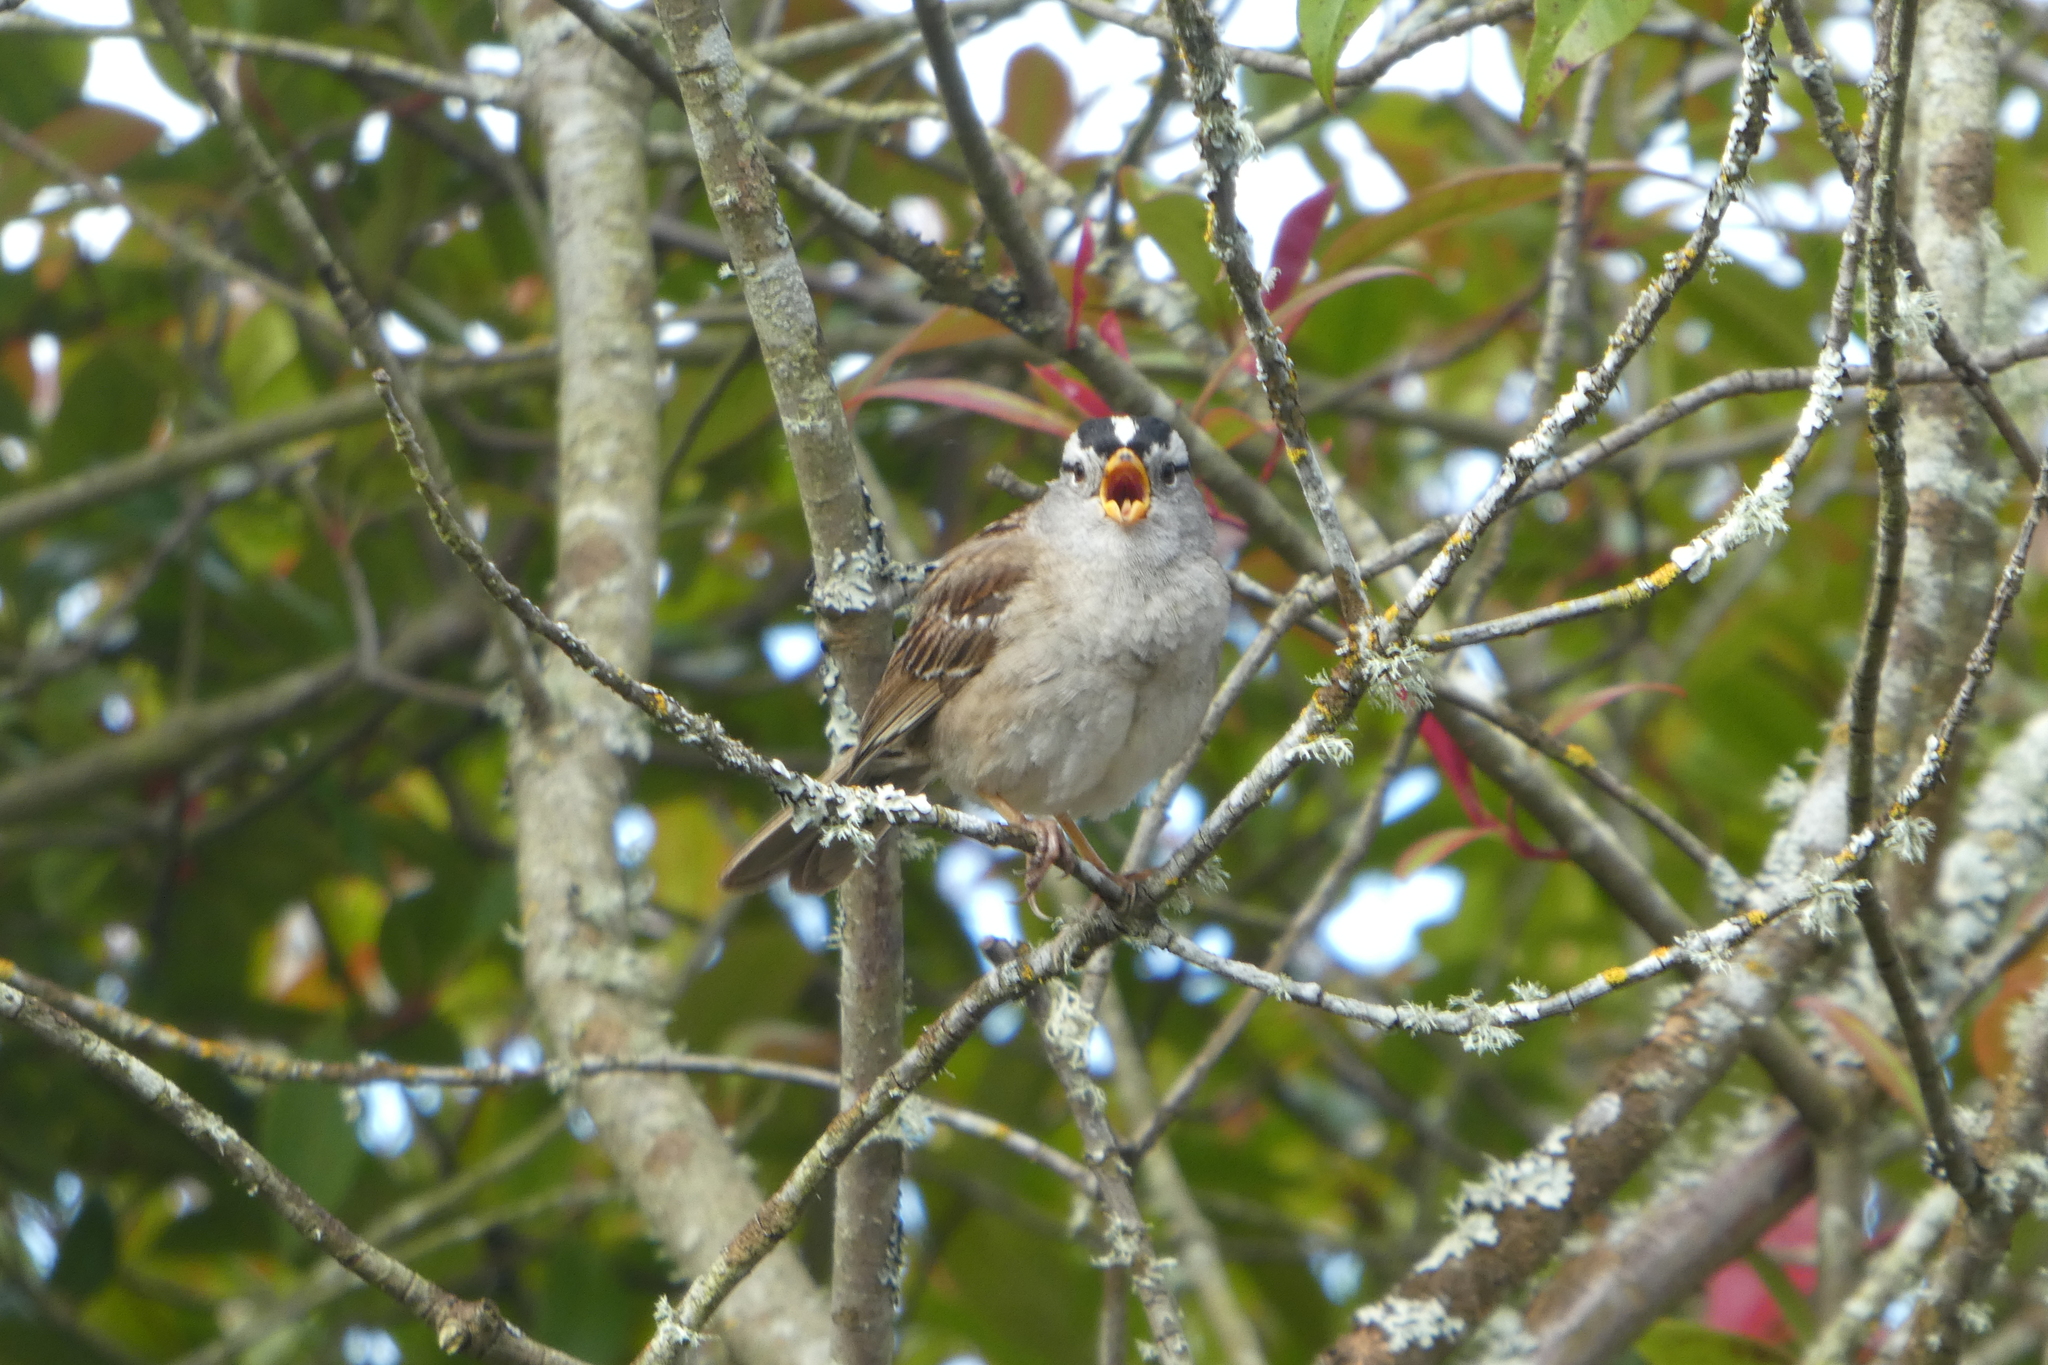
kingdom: Animalia
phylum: Chordata
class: Aves
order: Passeriformes
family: Passerellidae
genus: Zonotrichia
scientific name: Zonotrichia leucophrys
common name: White-crowned sparrow
